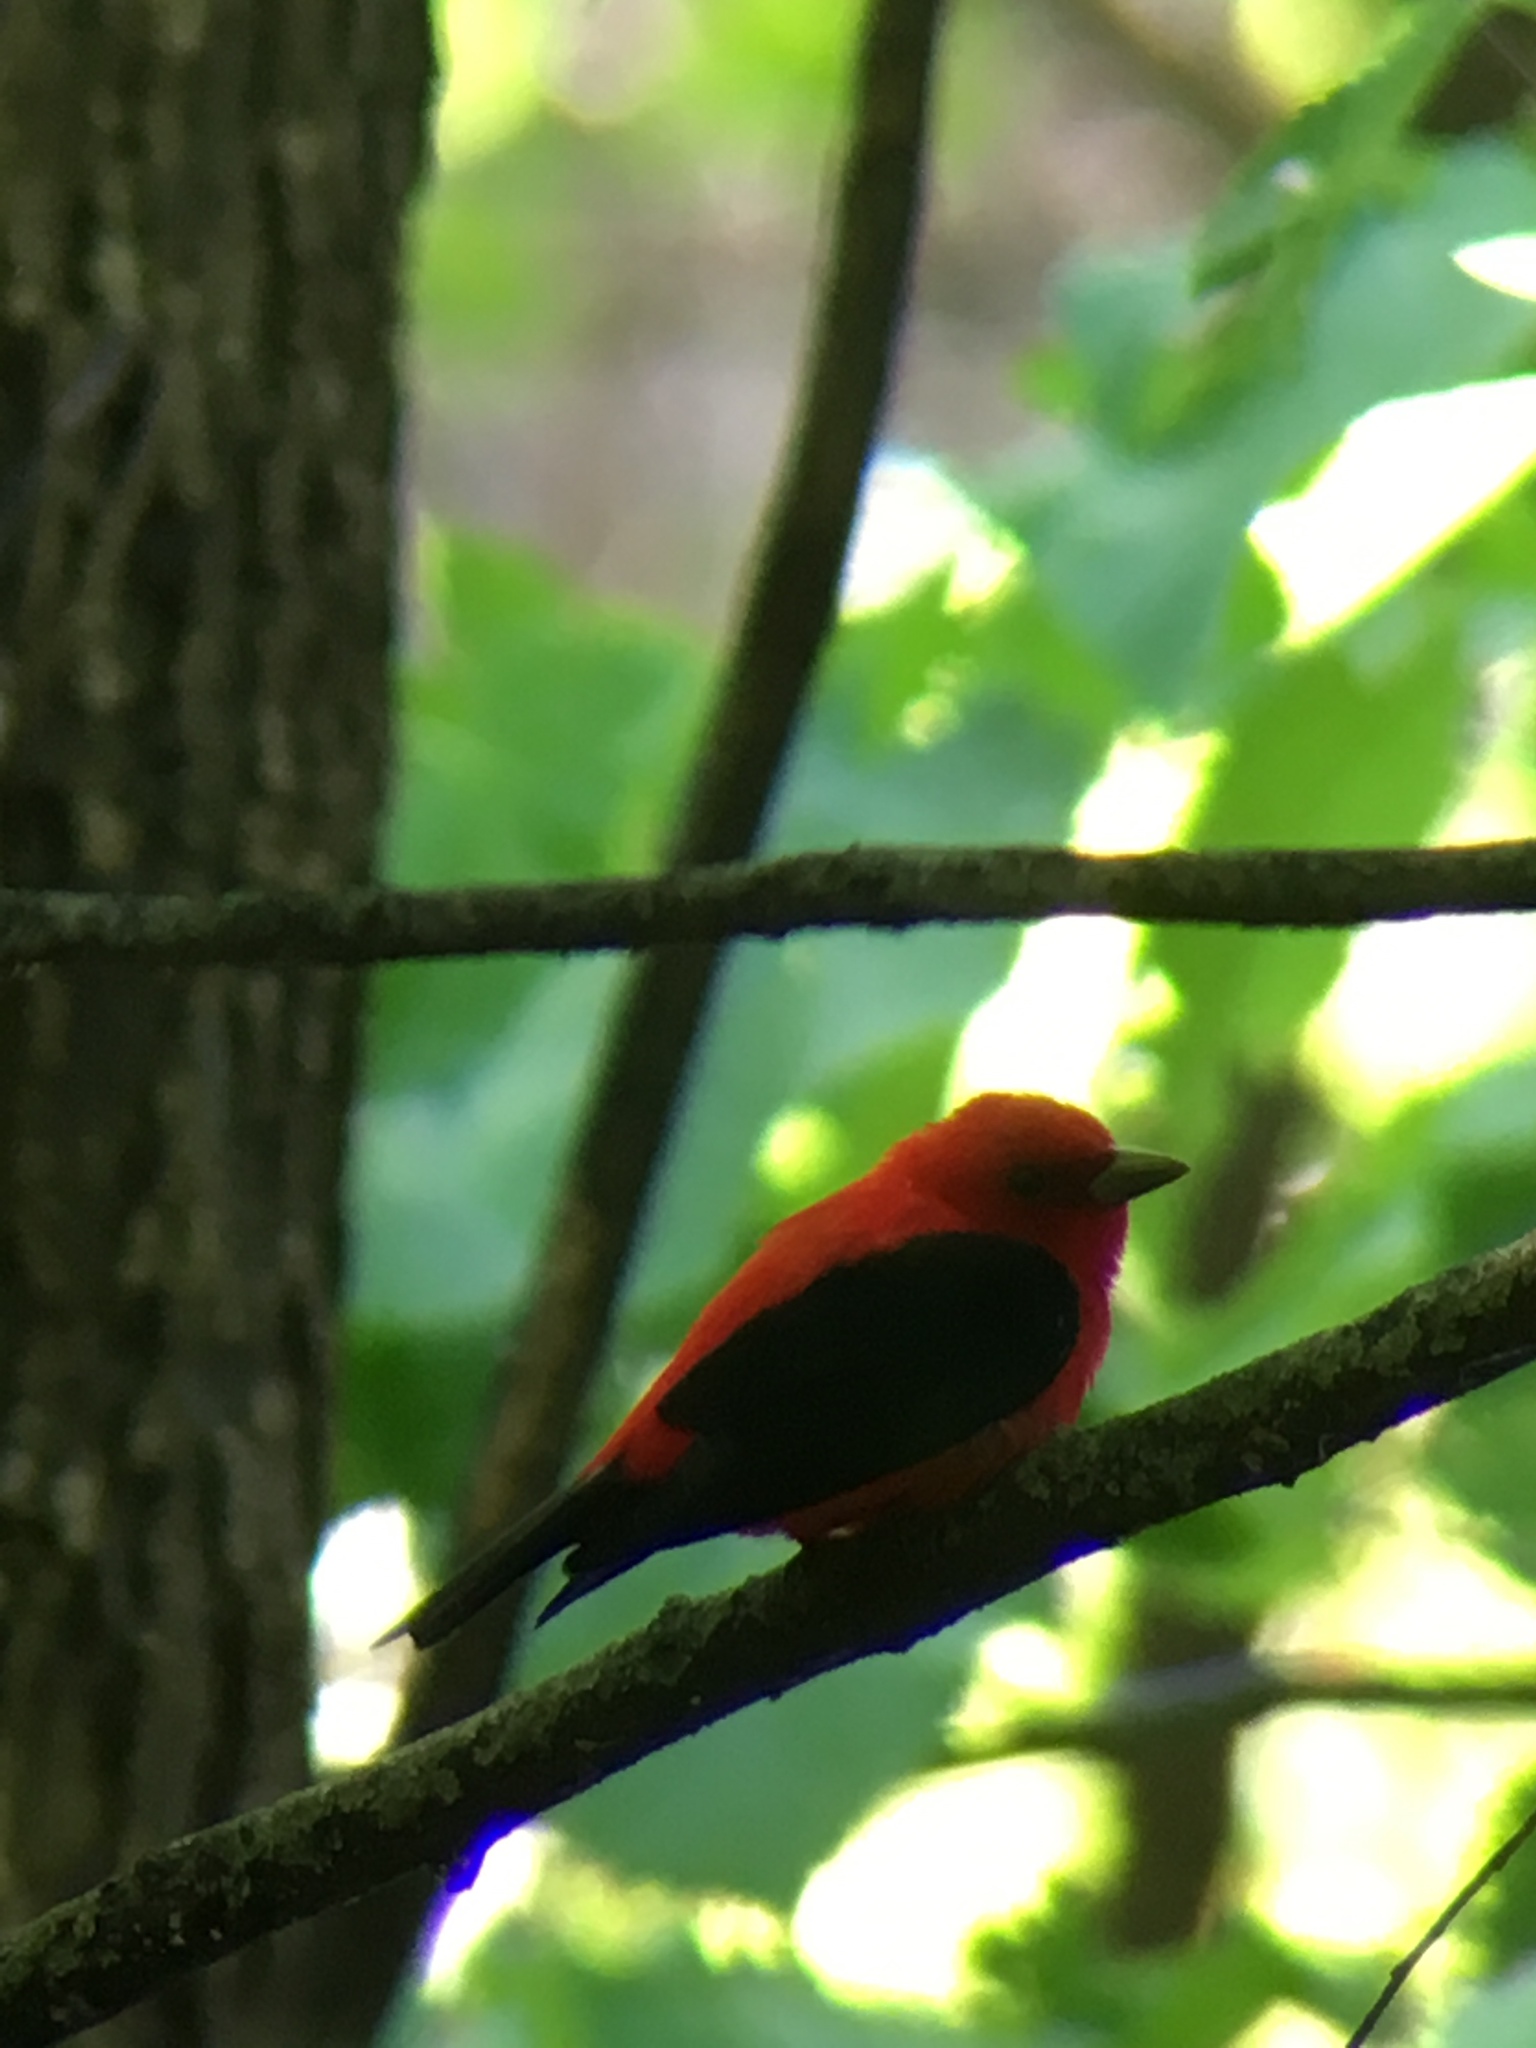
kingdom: Animalia
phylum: Chordata
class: Aves
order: Passeriformes
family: Cardinalidae
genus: Piranga
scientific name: Piranga olivacea
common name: Scarlet tanager
